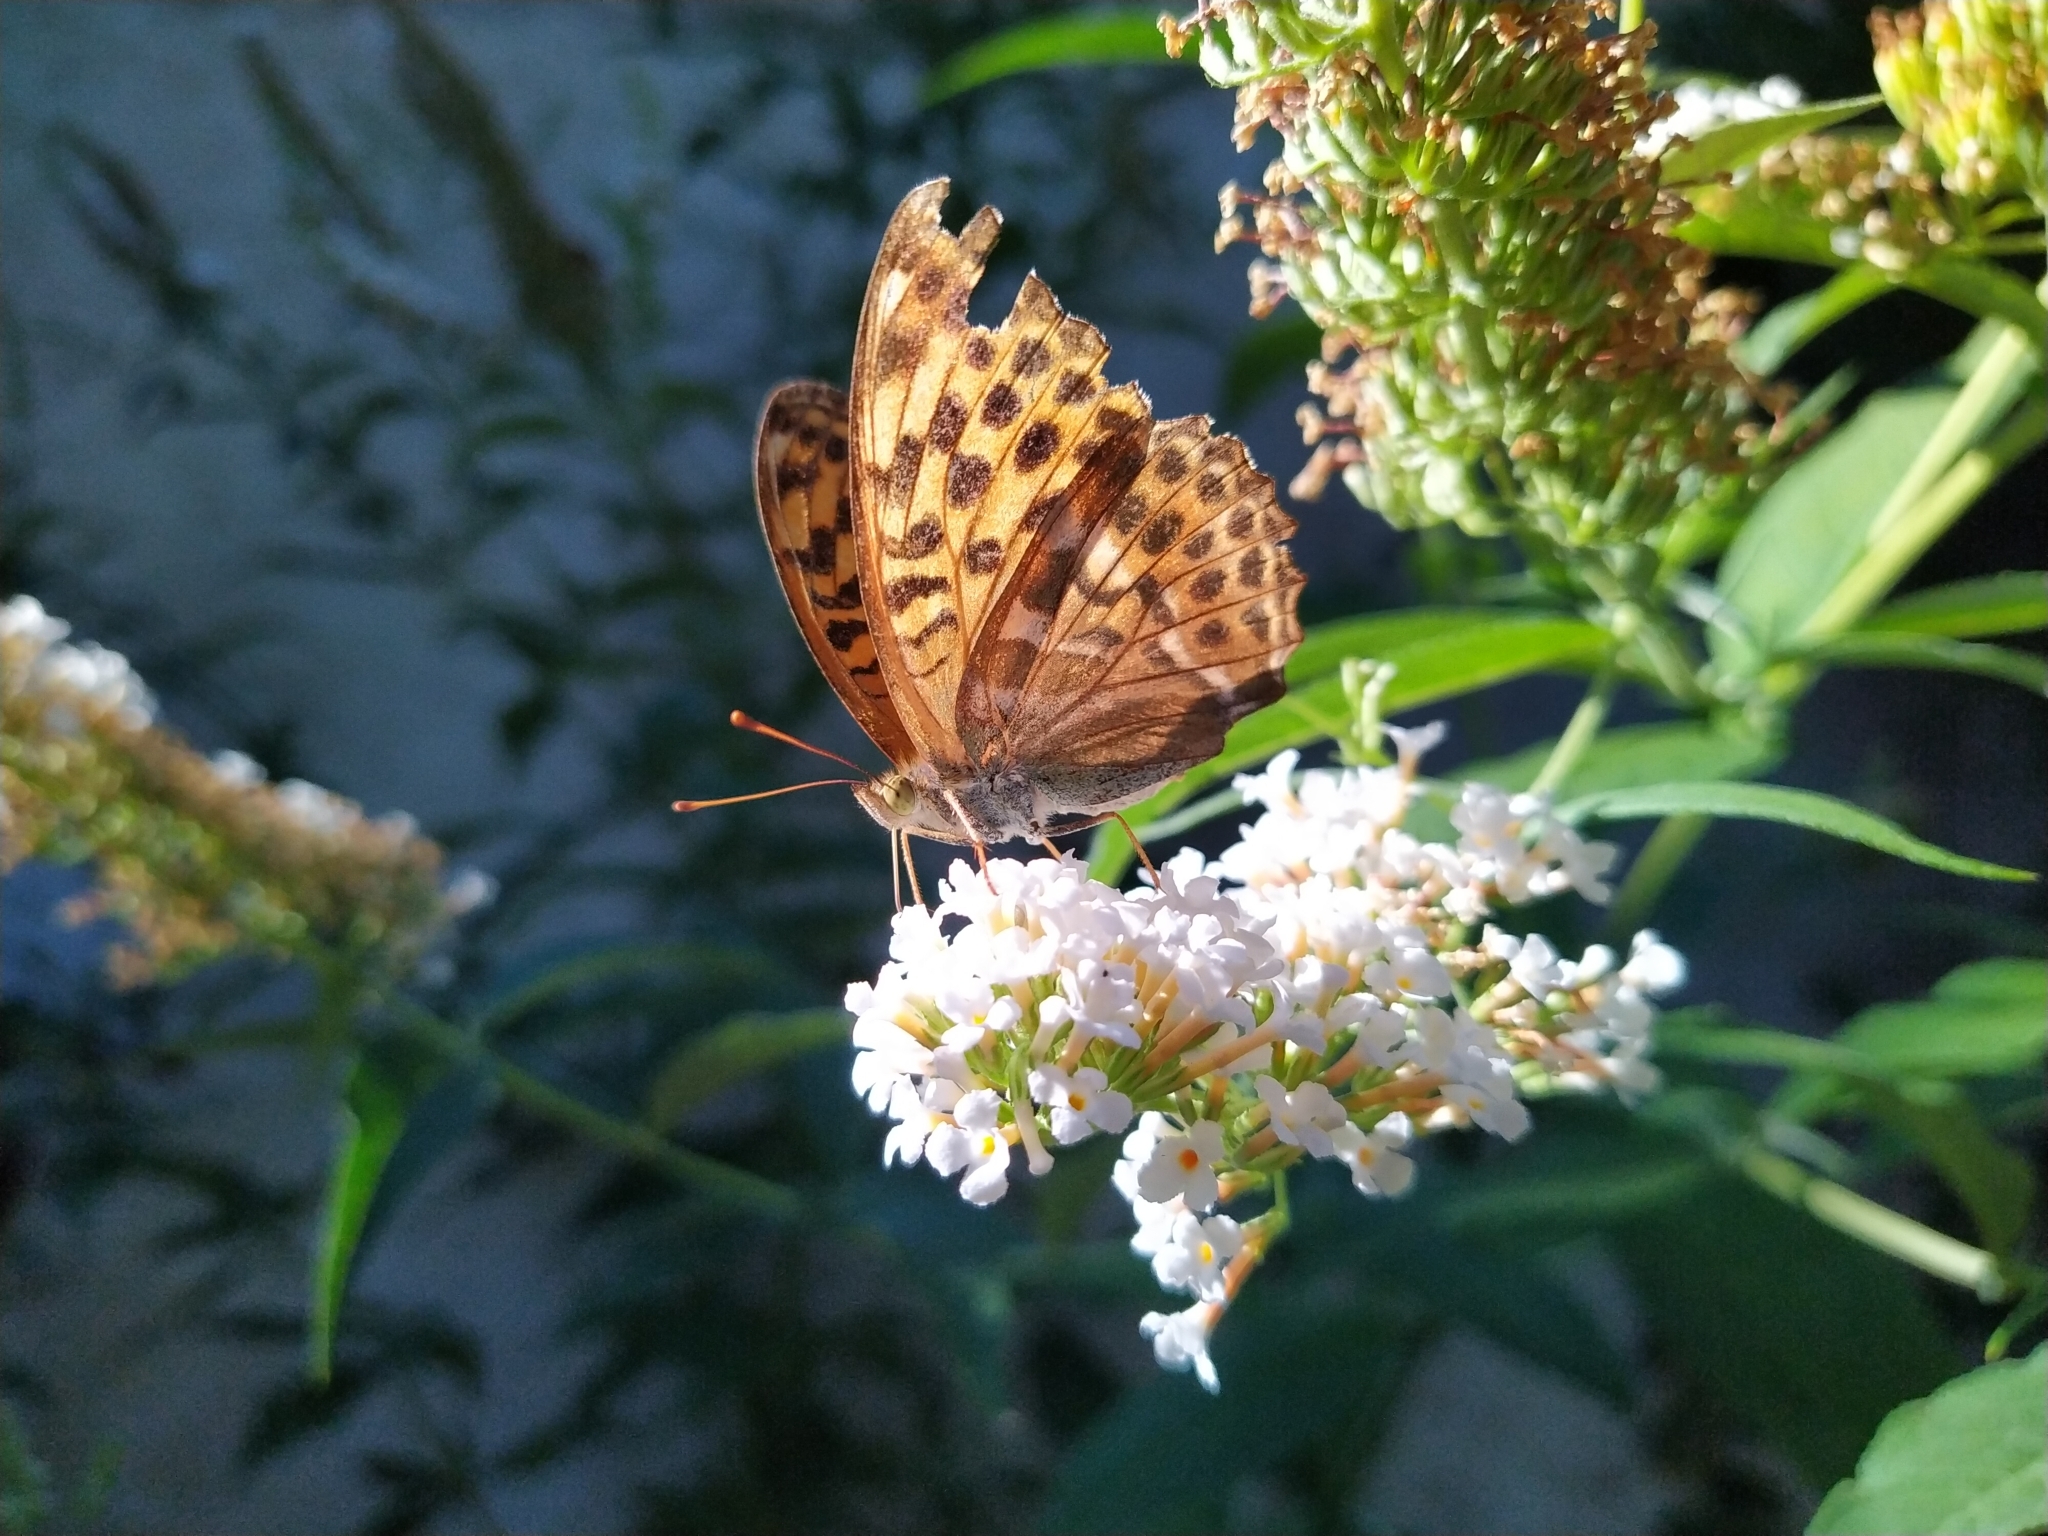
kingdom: Animalia
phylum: Arthropoda
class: Insecta
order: Lepidoptera
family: Nymphalidae
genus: Argynnis
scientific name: Argynnis paphia
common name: Silver-washed fritillary
